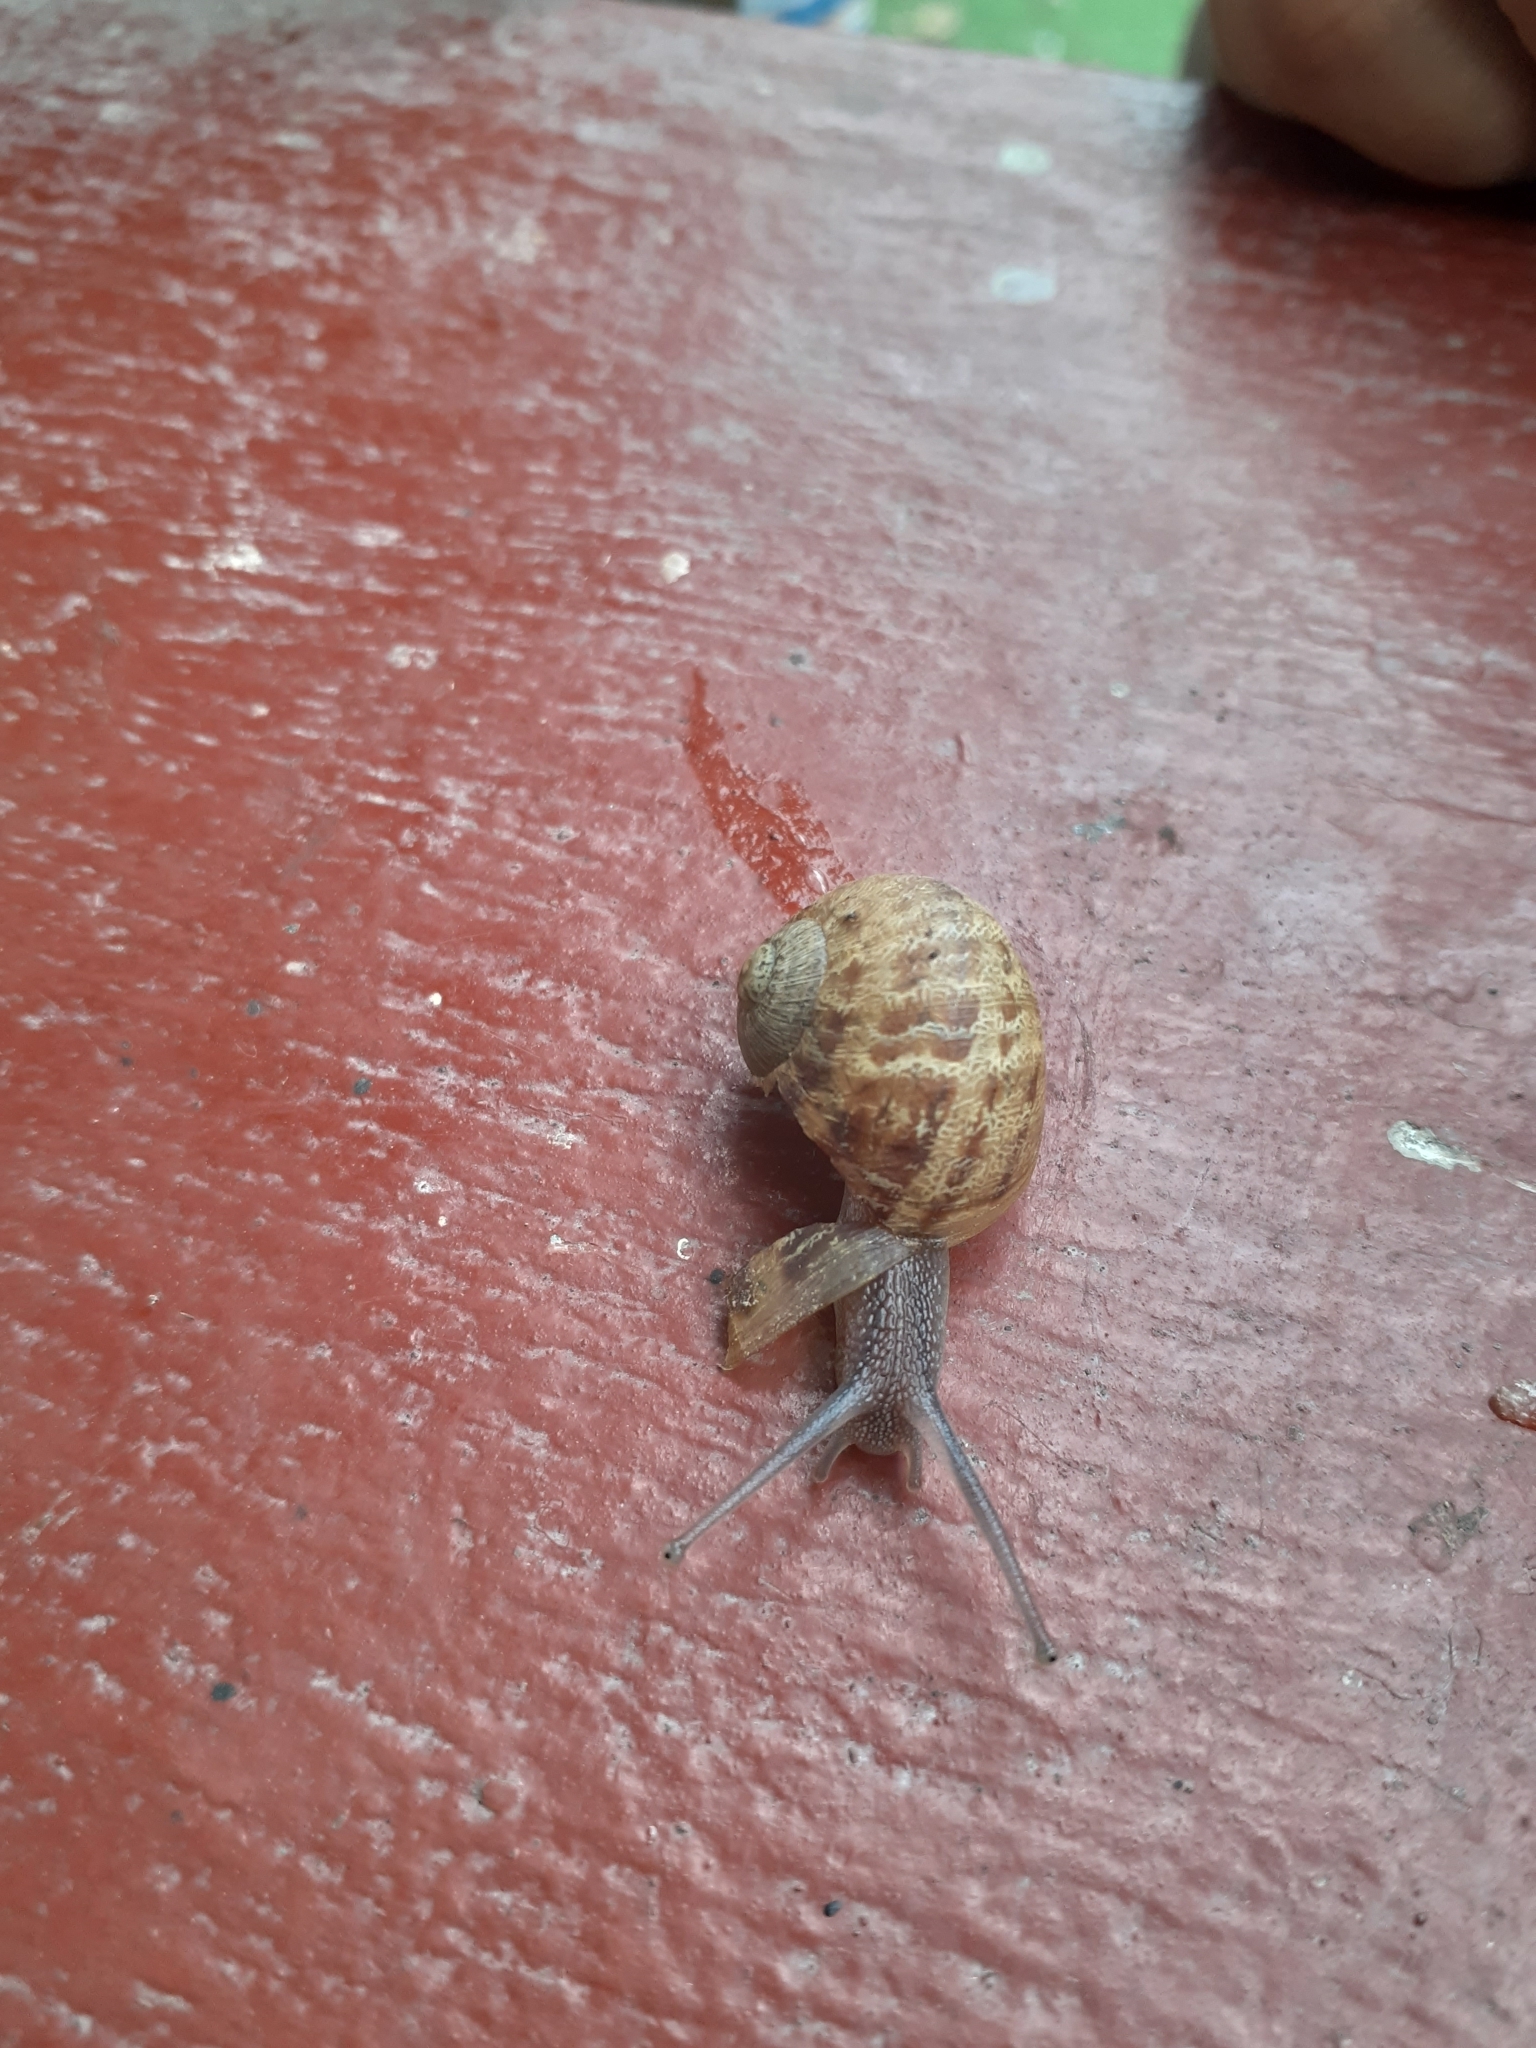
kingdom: Animalia
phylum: Mollusca
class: Gastropoda
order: Stylommatophora
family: Helicidae
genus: Cornu
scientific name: Cornu aspersum
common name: Brown garden snail
